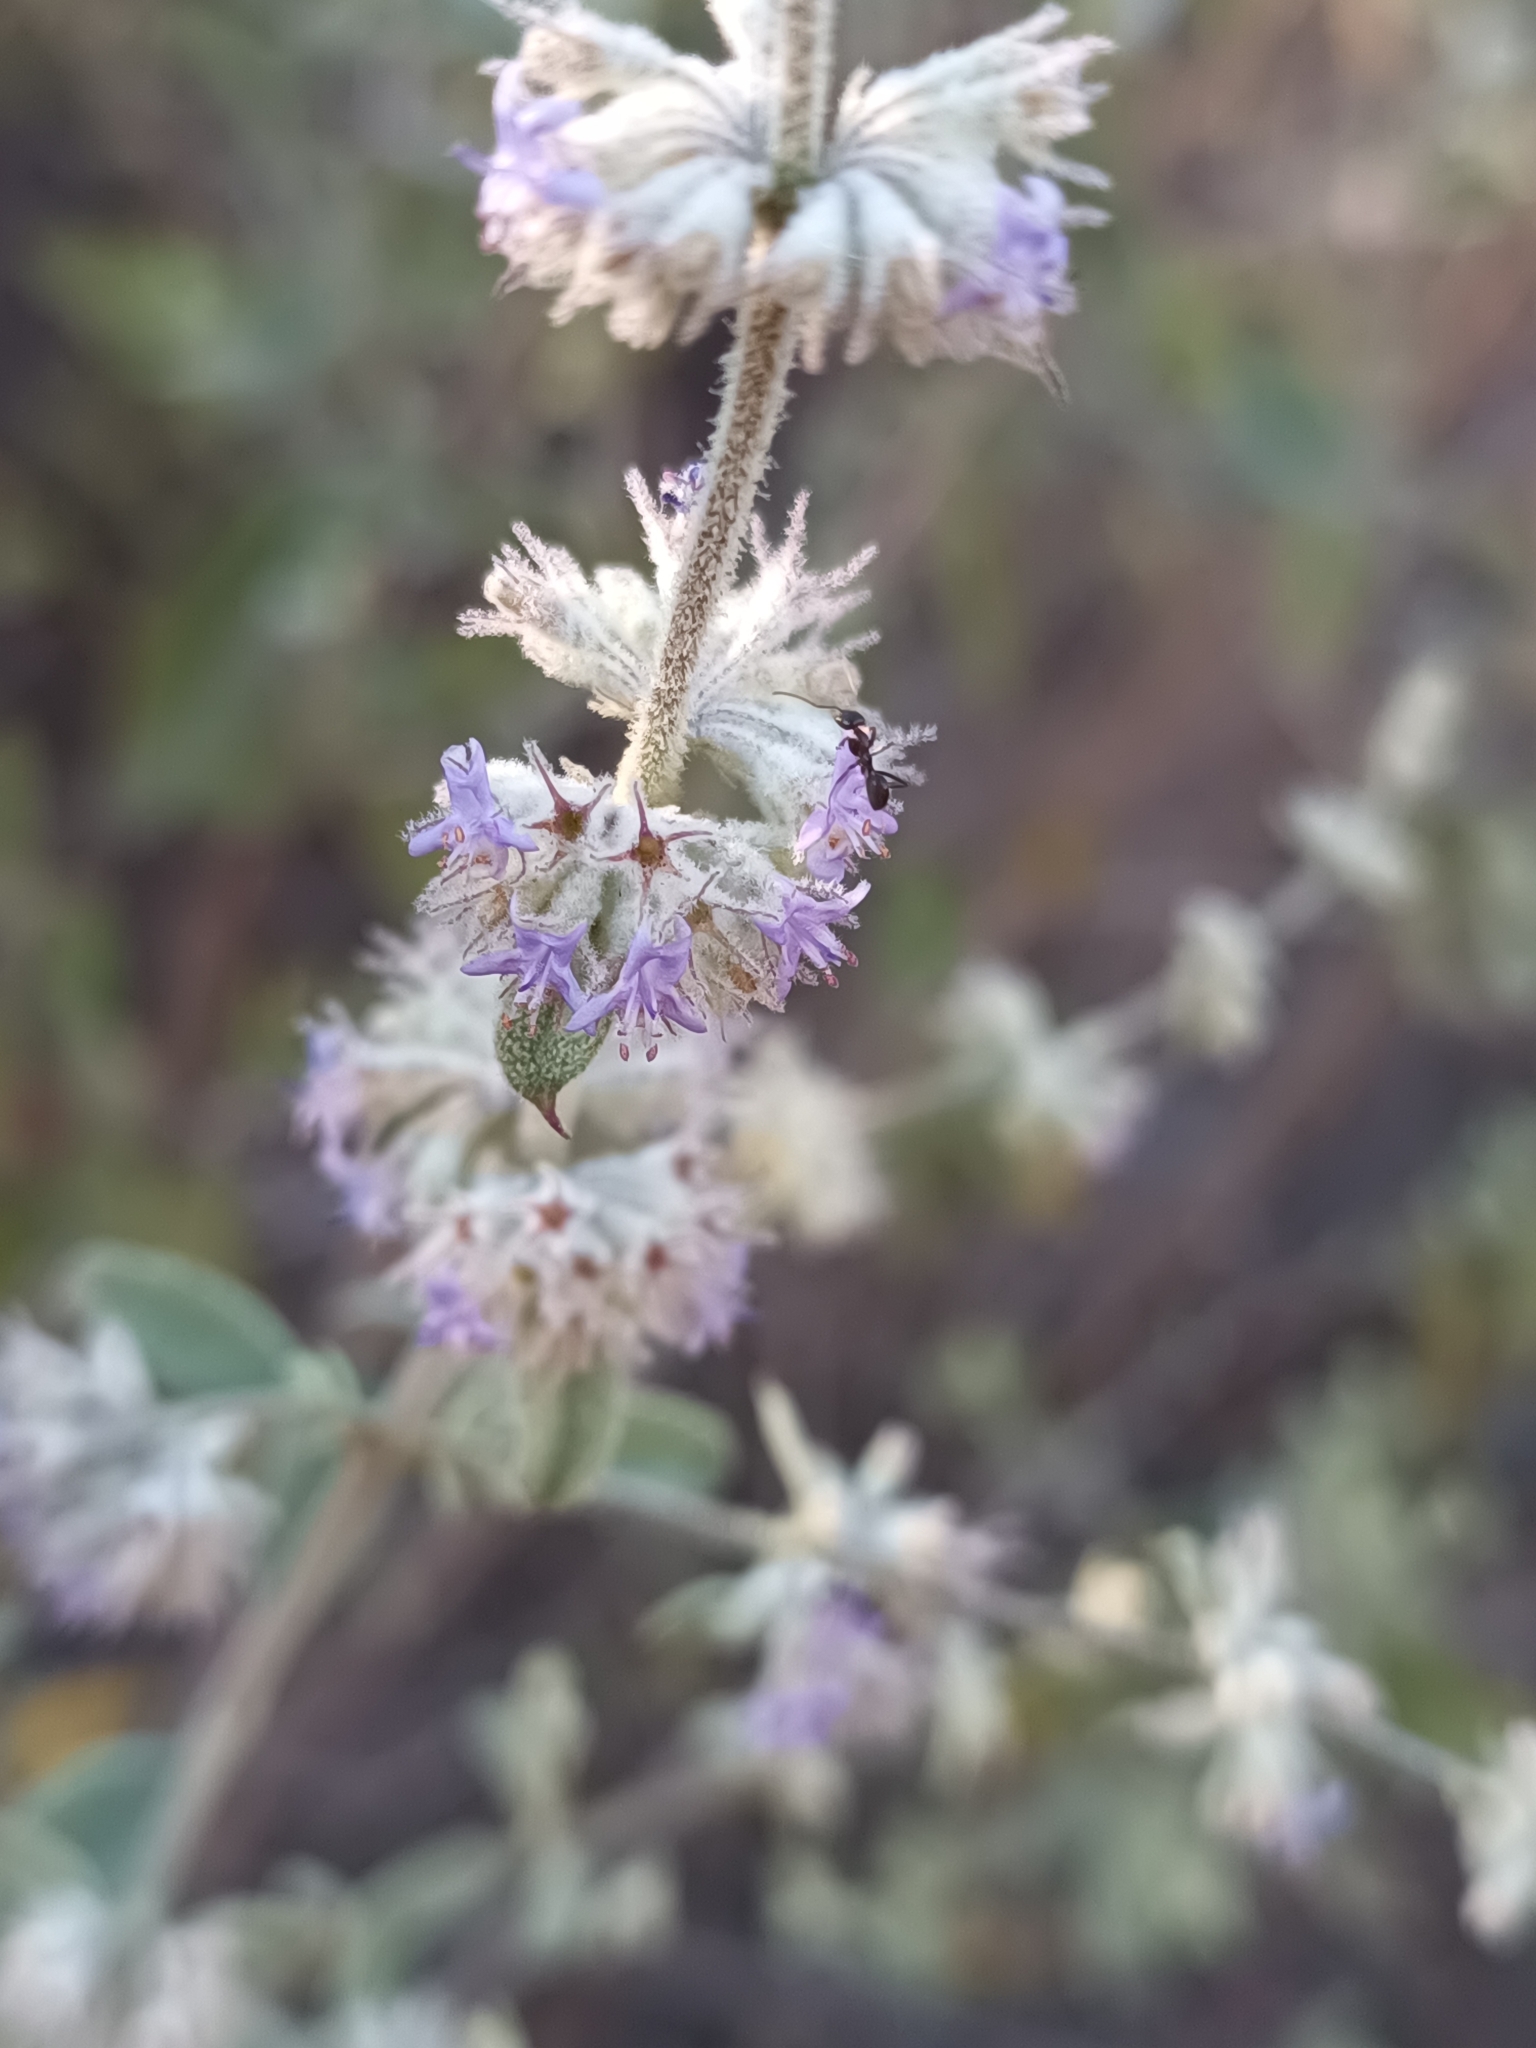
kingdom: Plantae
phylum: Tracheophyta
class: Magnoliopsida
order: Lamiales
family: Lamiaceae
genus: Condea
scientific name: Condea albida
